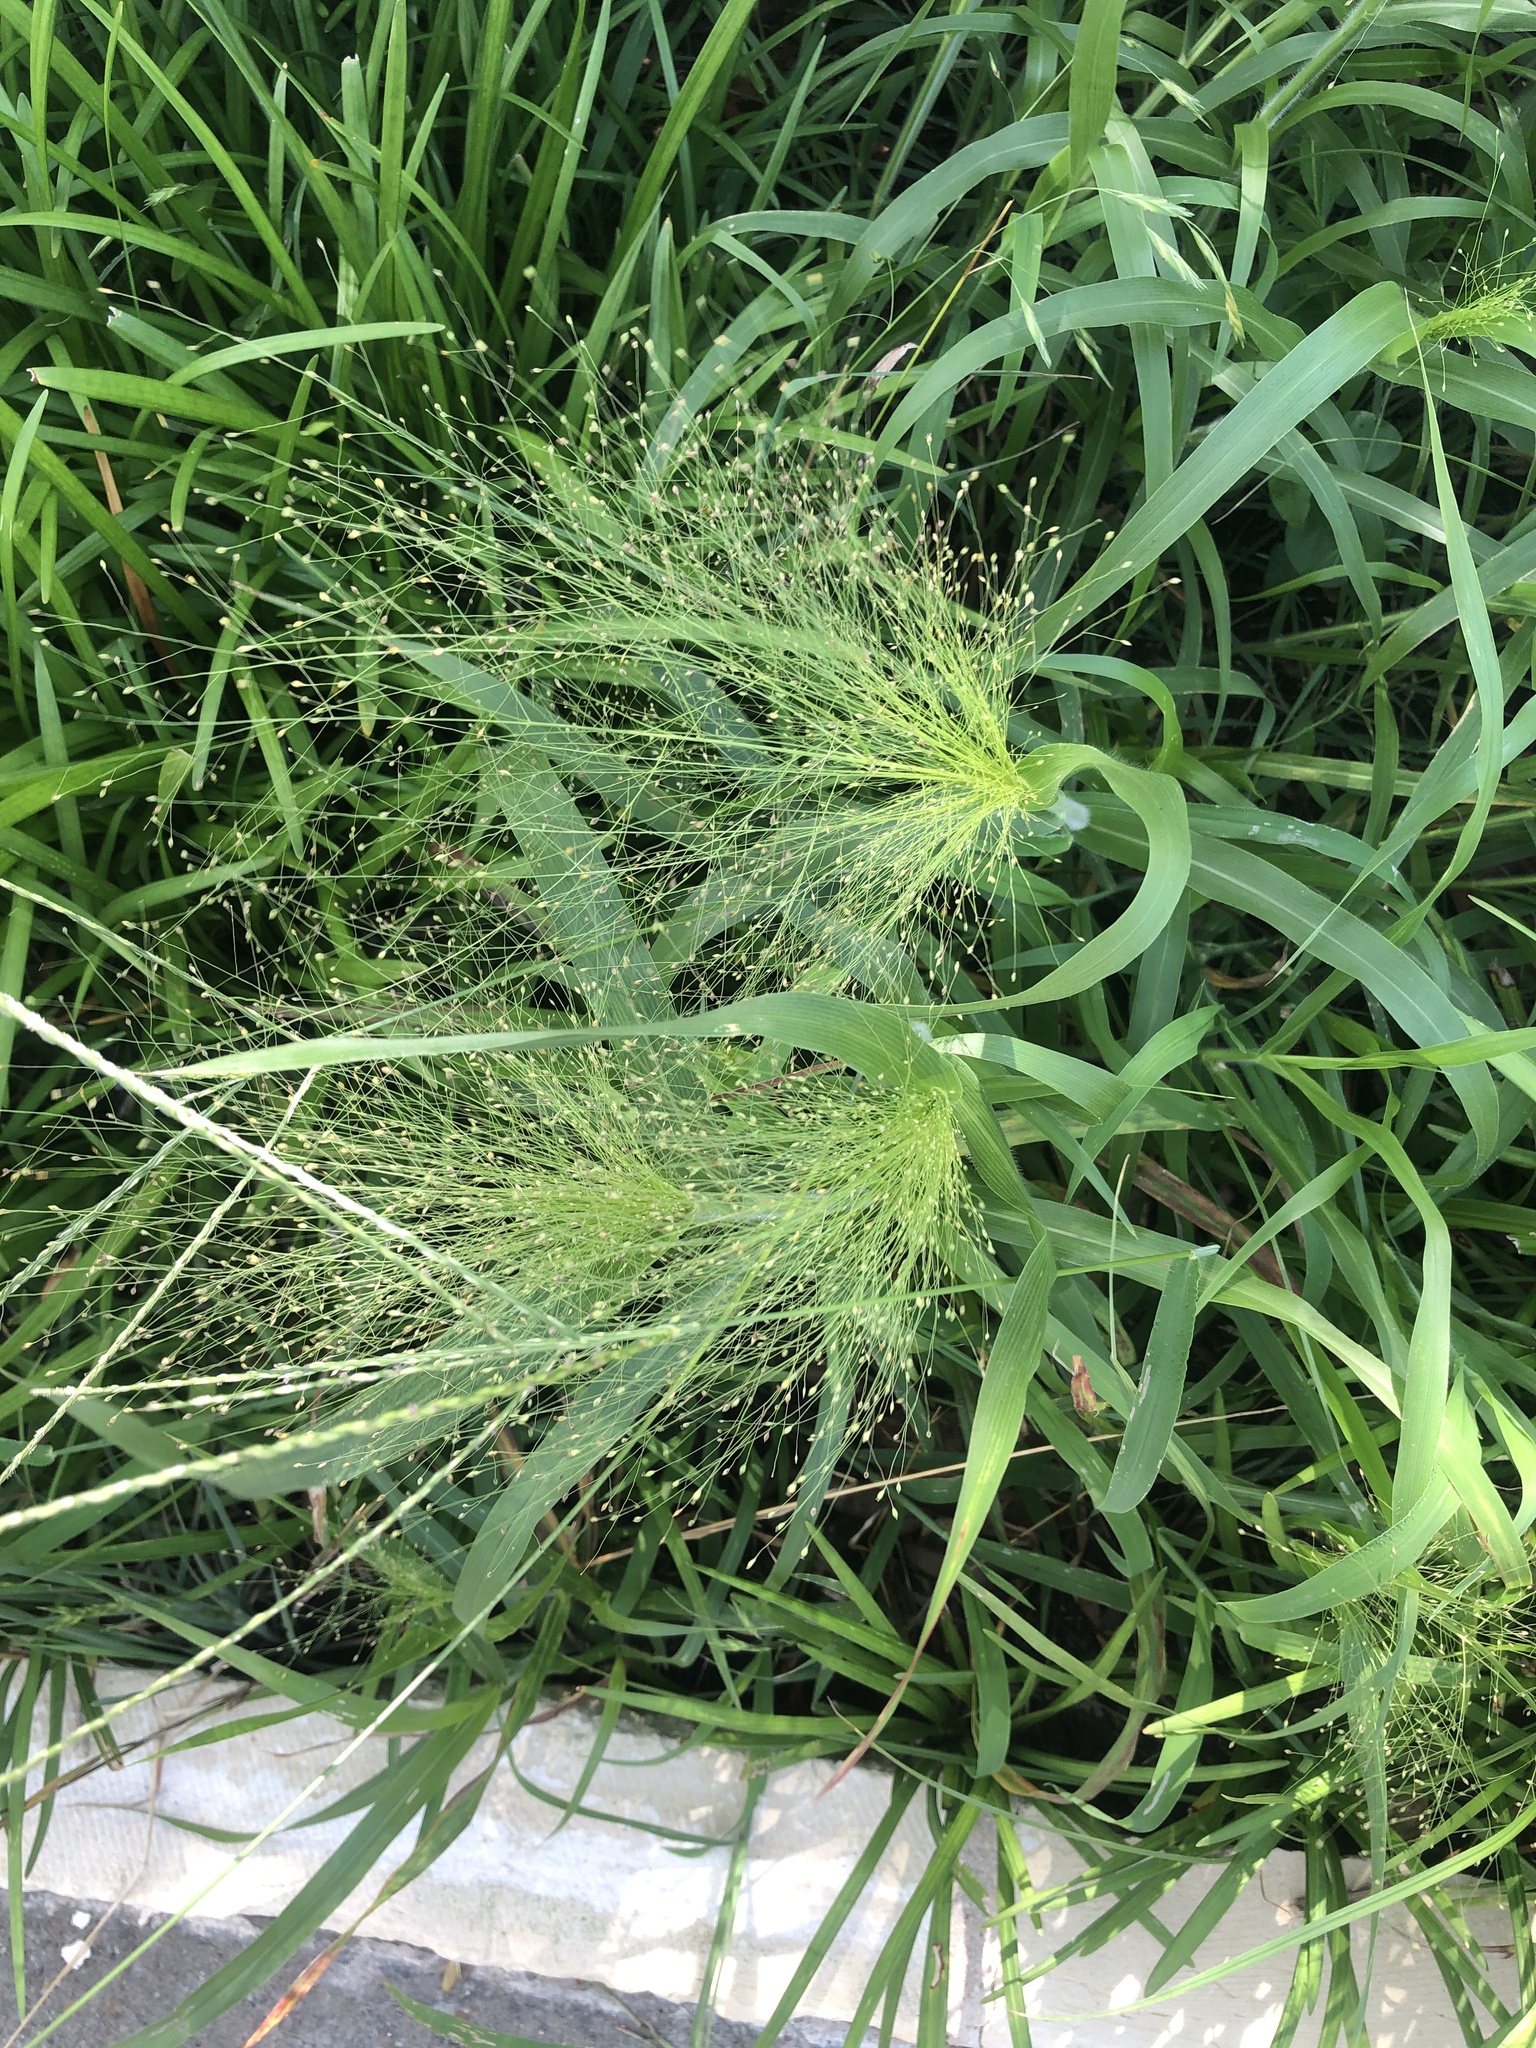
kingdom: Plantae
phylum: Tracheophyta
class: Liliopsida
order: Poales
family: Poaceae
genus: Panicum
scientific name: Panicum capillare
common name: Witch-grass
